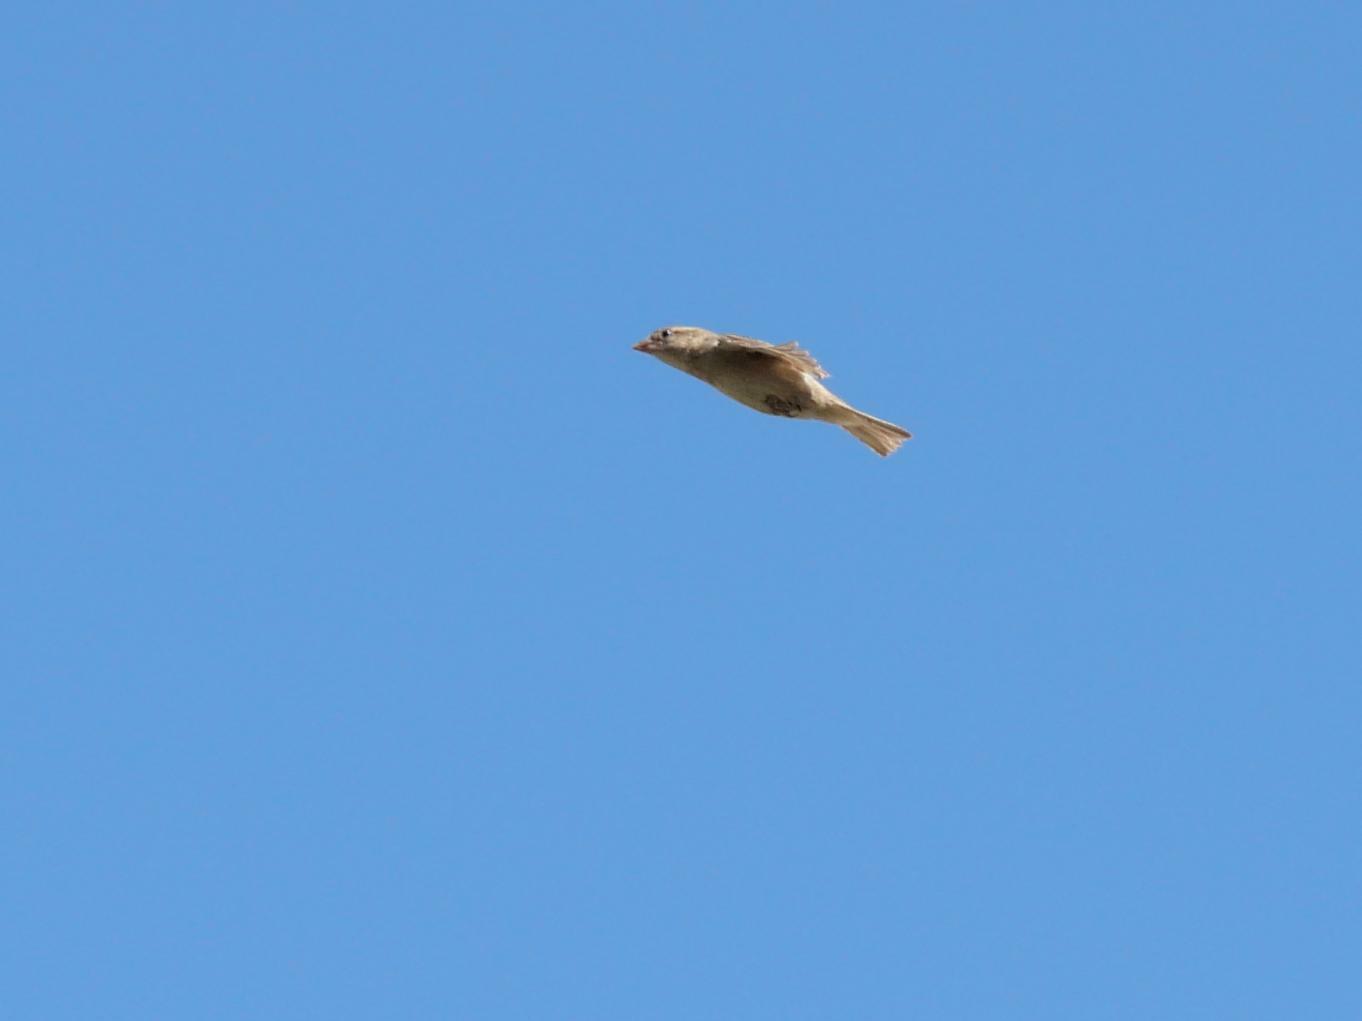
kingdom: Animalia
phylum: Chordata
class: Aves
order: Passeriformes
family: Passeridae
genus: Passer
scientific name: Passer domesticus
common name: House sparrow
